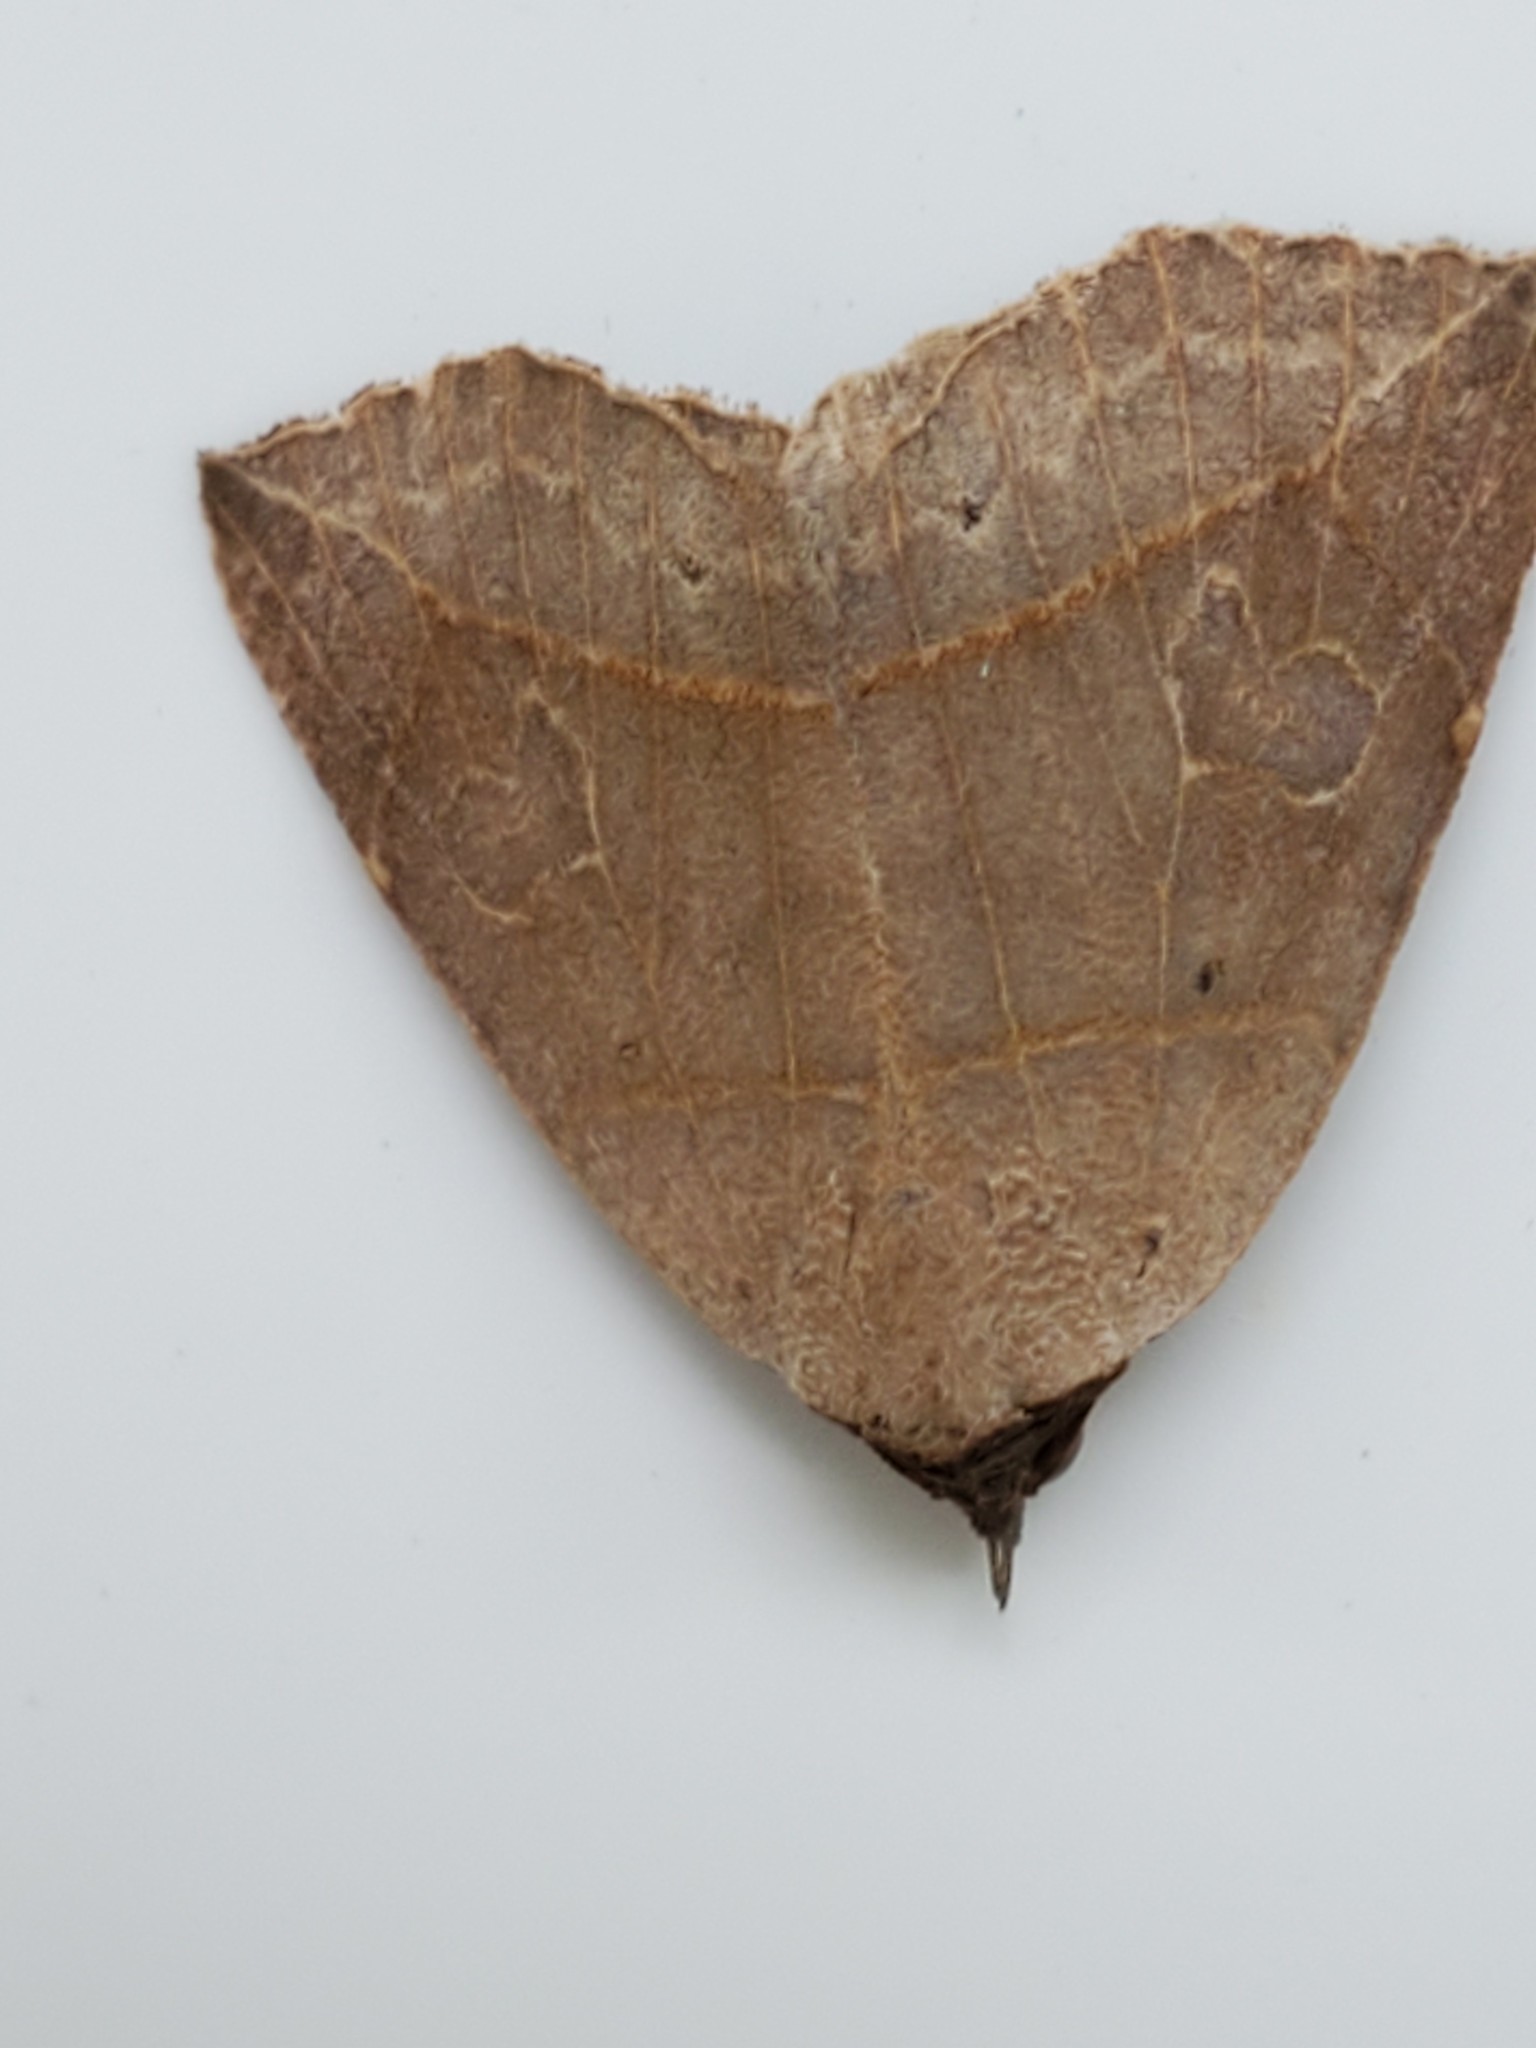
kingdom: Animalia
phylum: Arthropoda
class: Insecta
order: Lepidoptera
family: Erebidae
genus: Isogona
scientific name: Isogona tenuis
